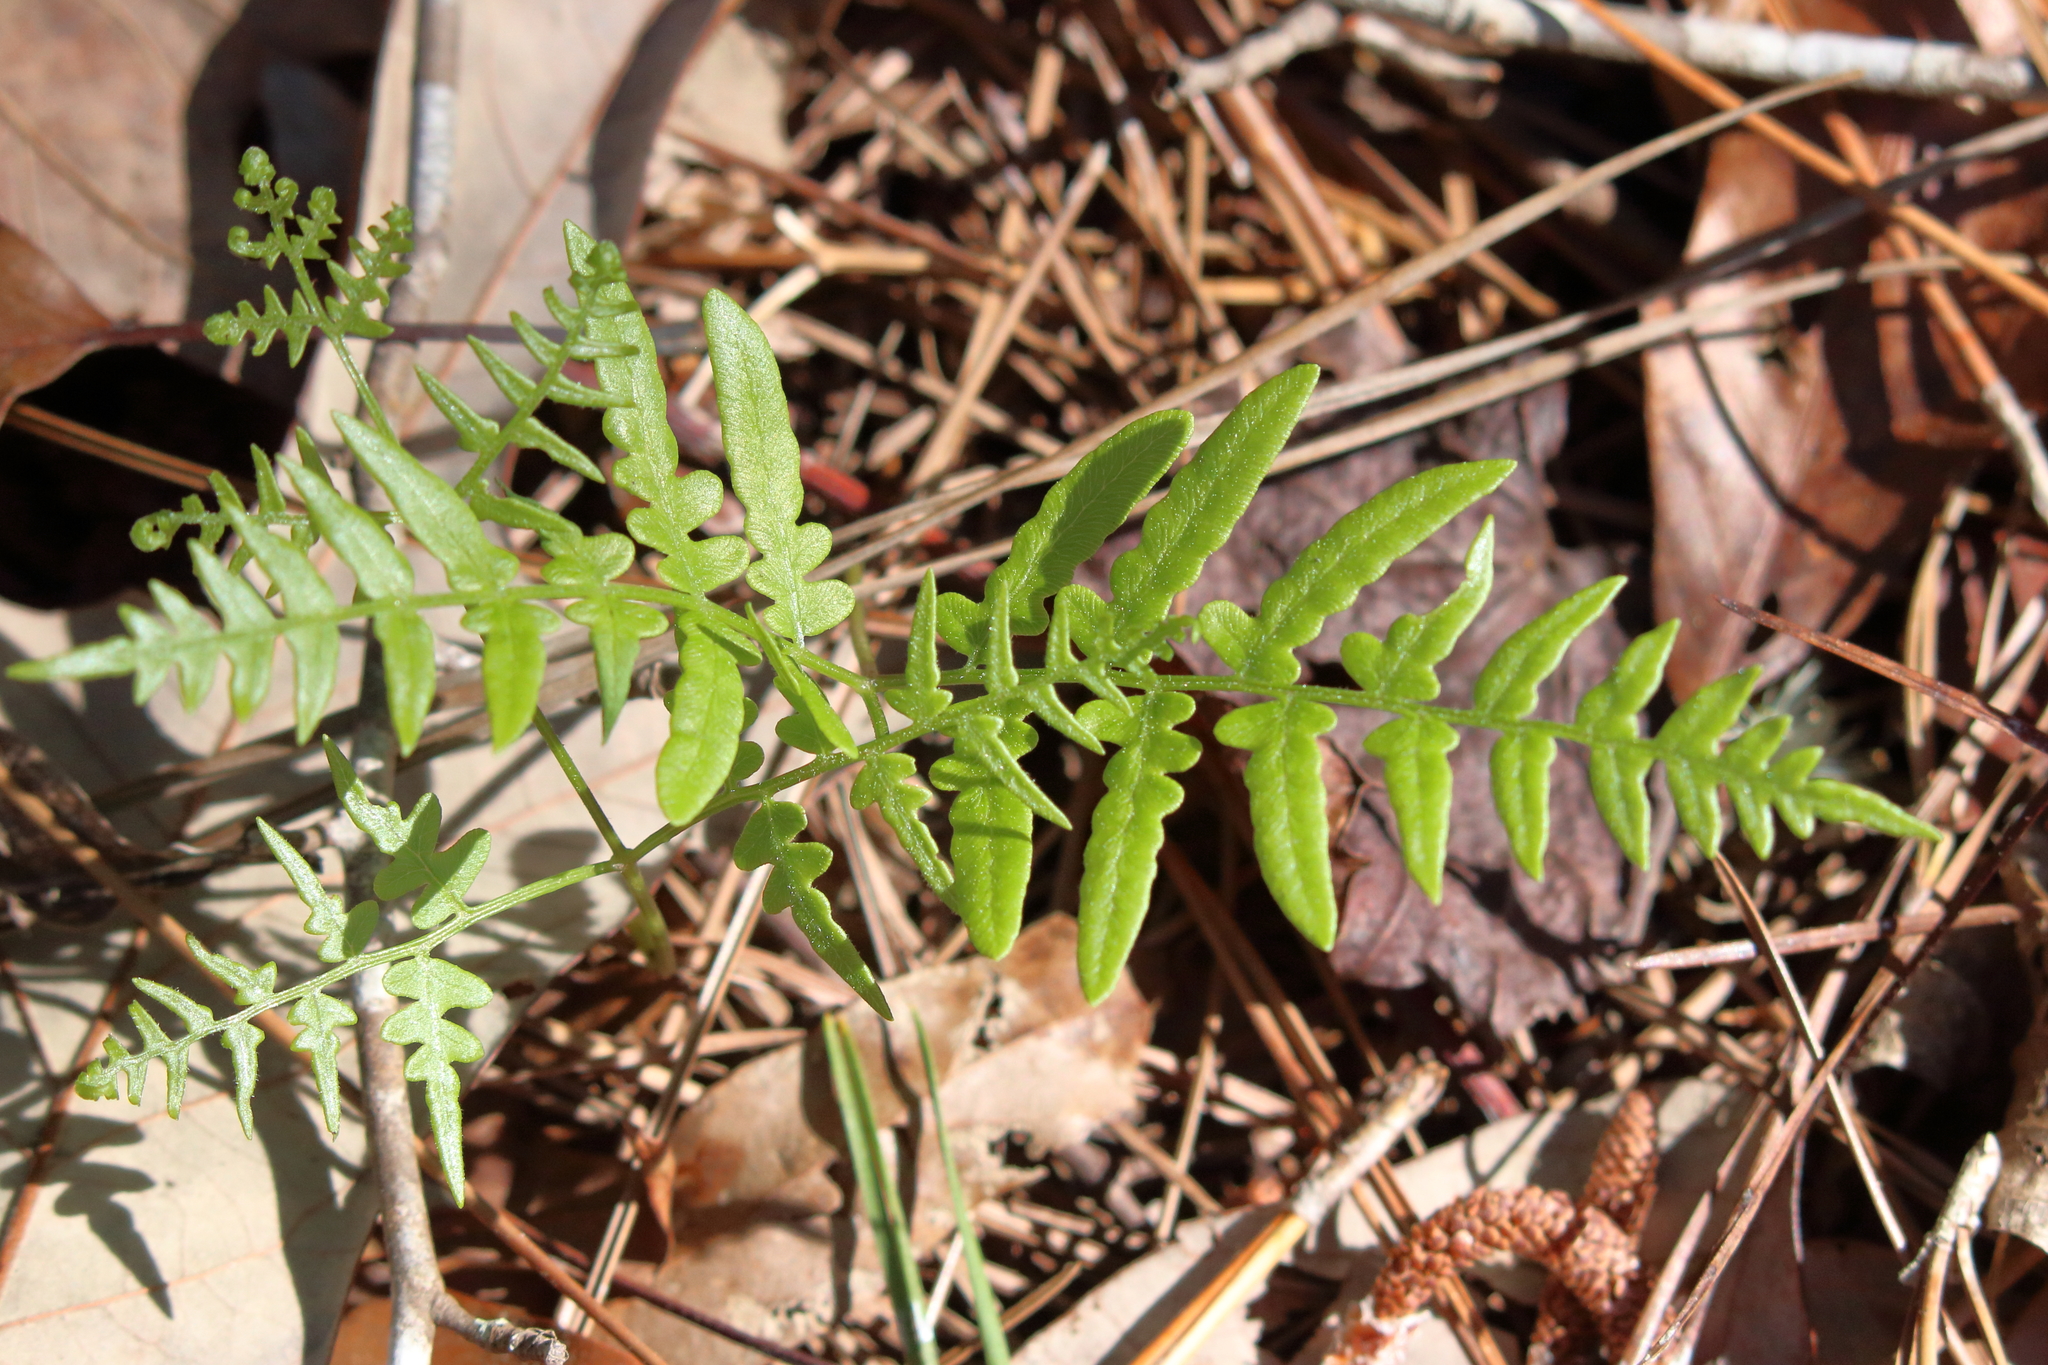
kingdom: Plantae
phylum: Tracheophyta
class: Polypodiopsida
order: Polypodiales
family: Dennstaedtiaceae
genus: Pteridium
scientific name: Pteridium aquilinum
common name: Bracken
